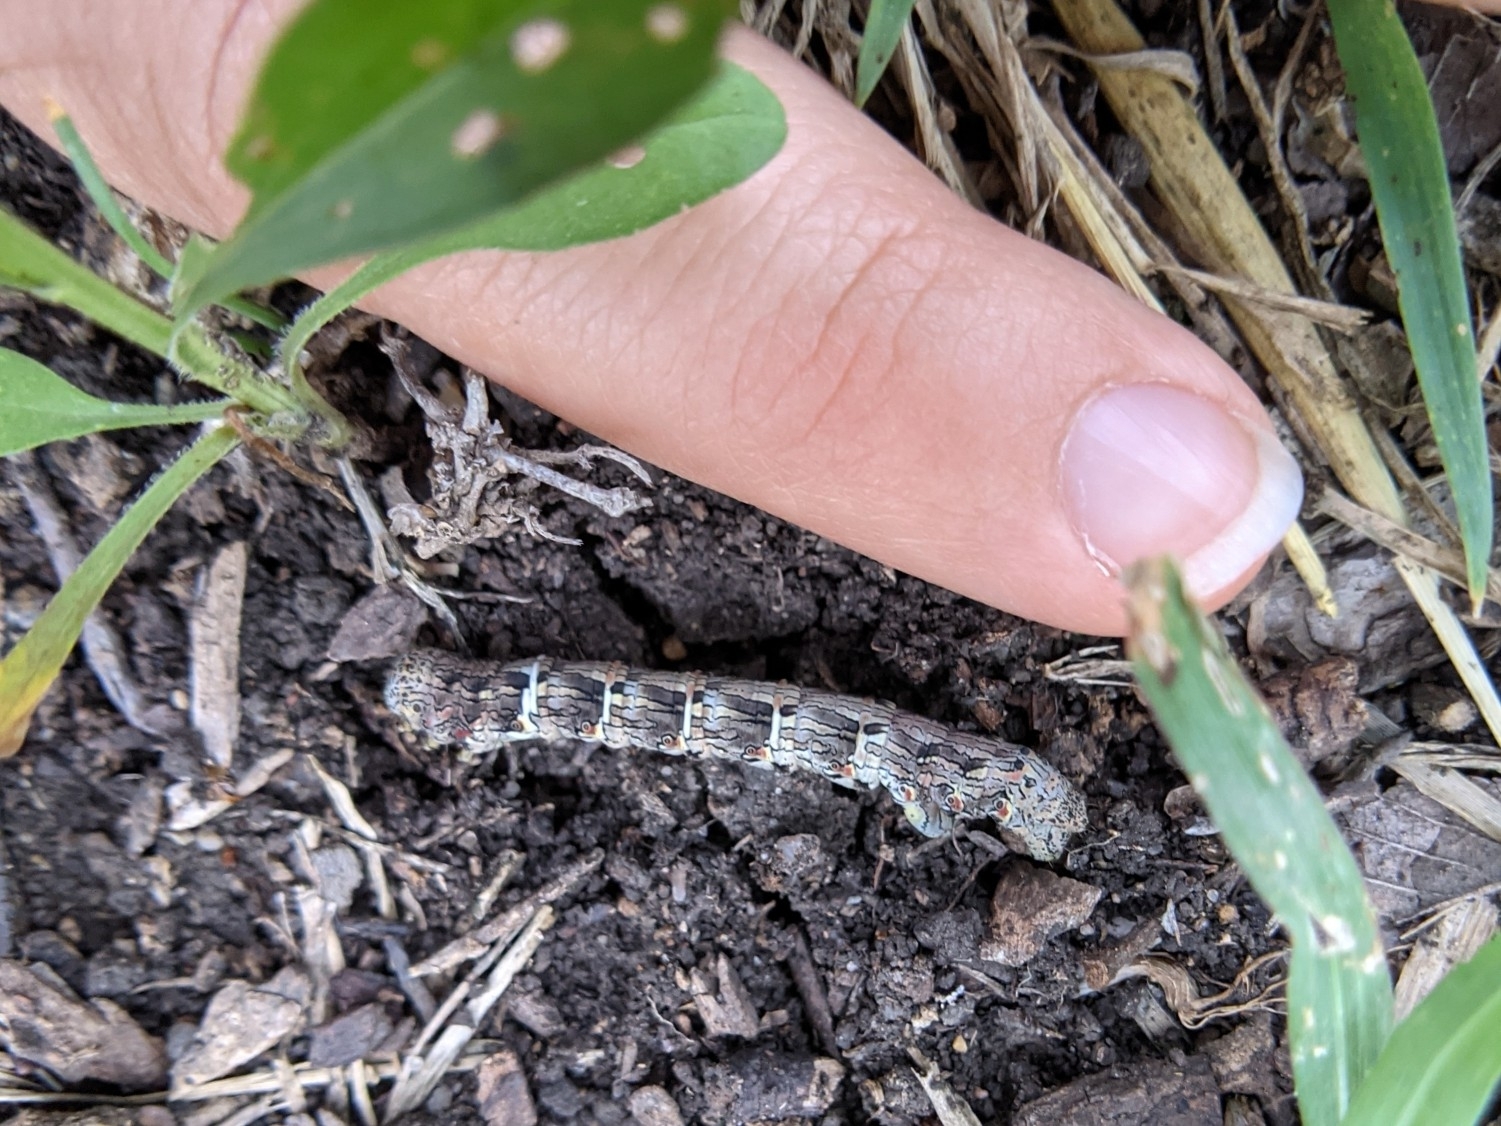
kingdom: Animalia
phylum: Arthropoda
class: Insecta
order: Lepidoptera
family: Geometridae
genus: Lycia
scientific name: Lycia ypsilon
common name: Wooly gray
